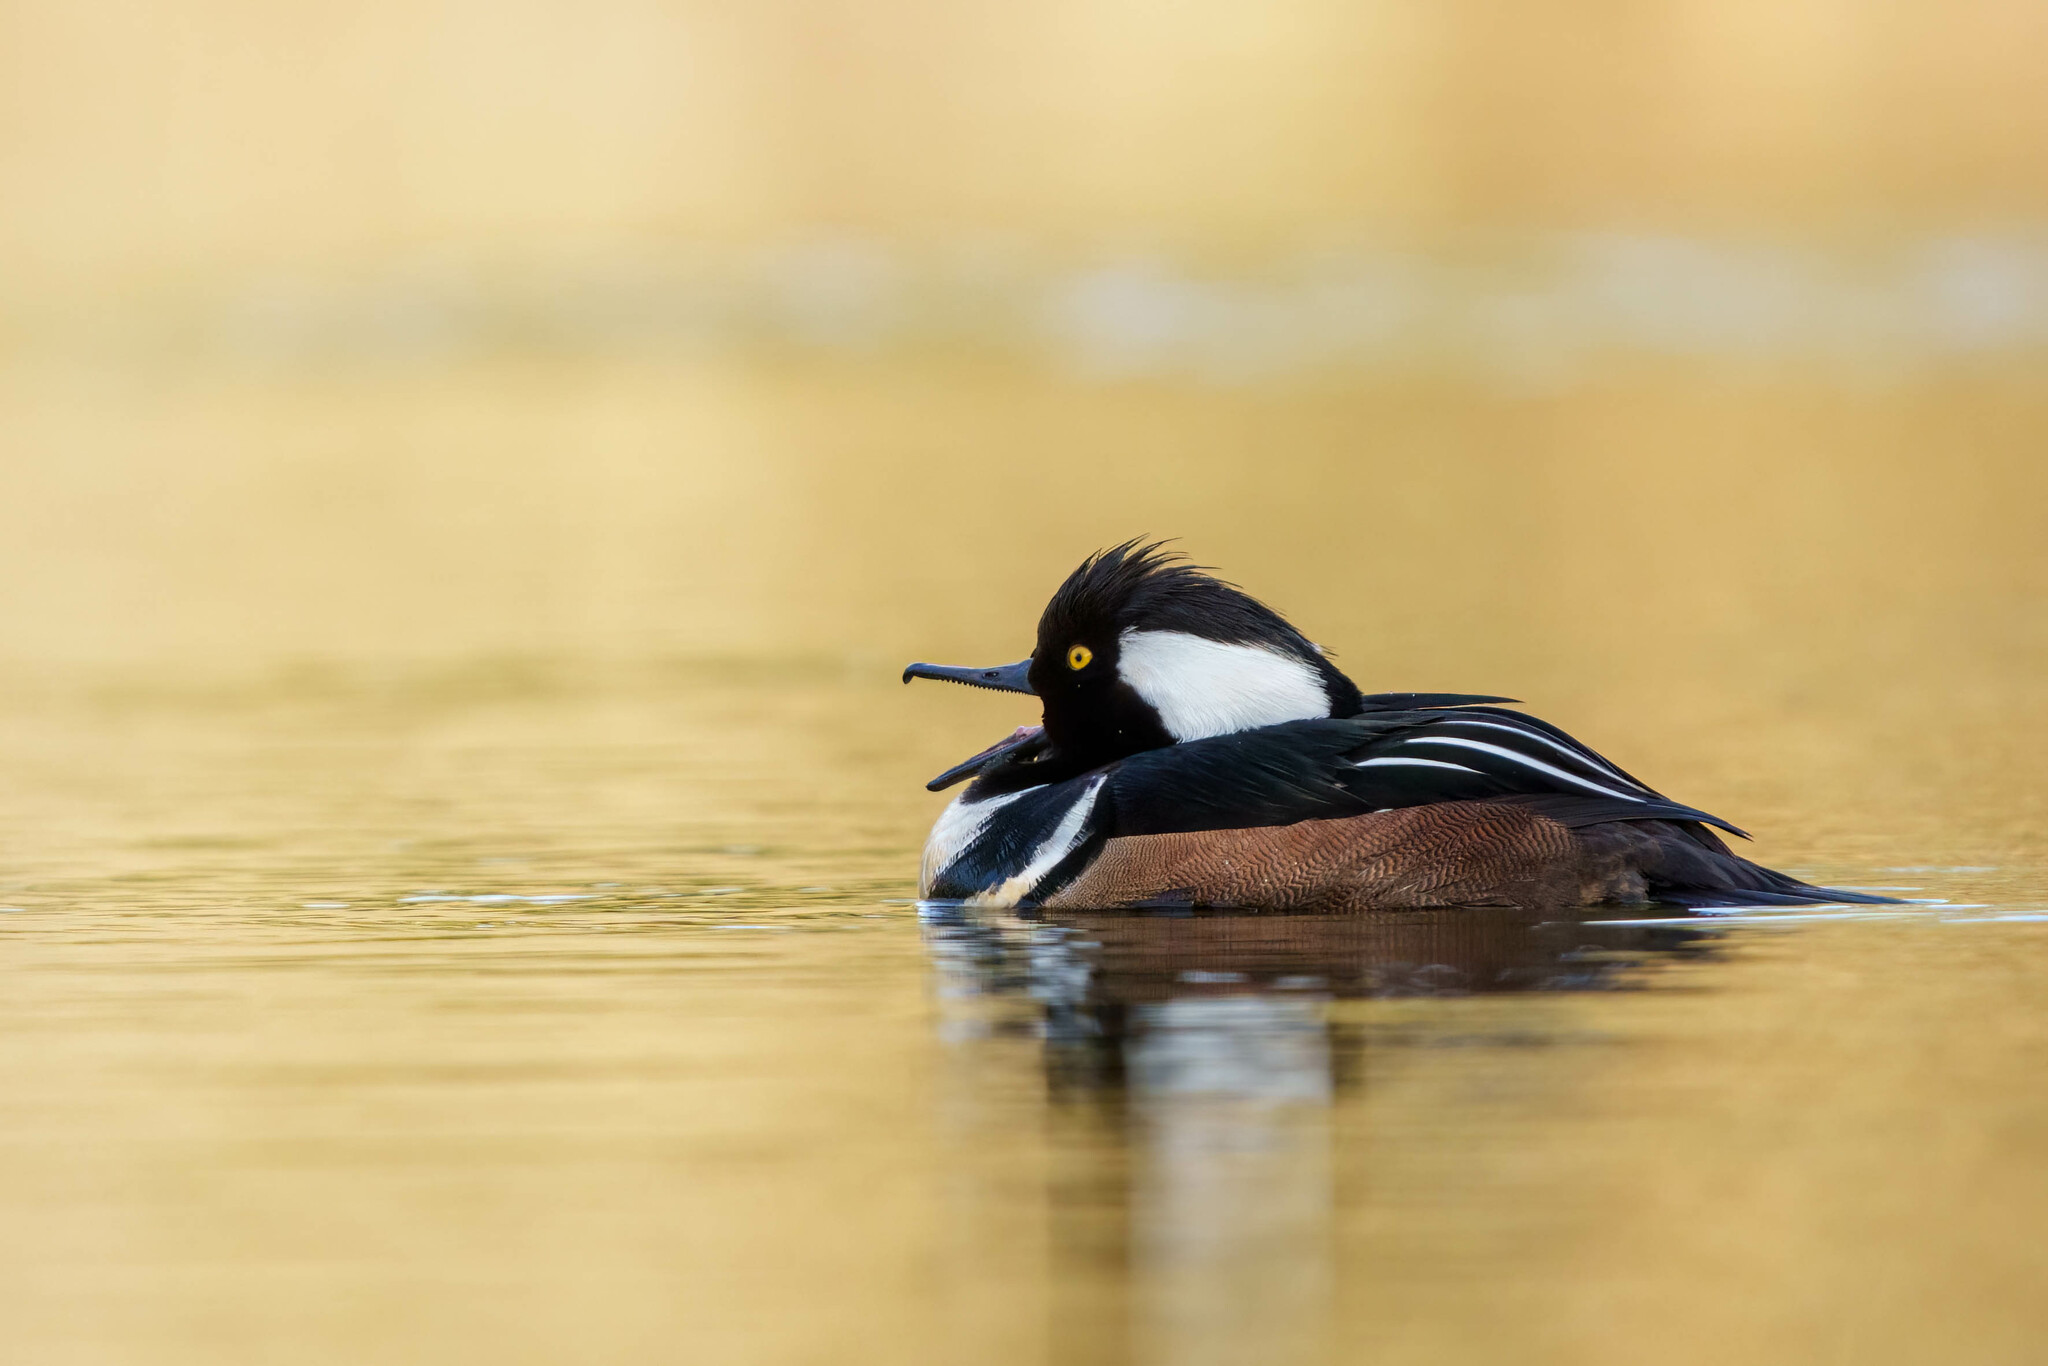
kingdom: Animalia
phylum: Chordata
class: Aves
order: Anseriformes
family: Anatidae
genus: Lophodytes
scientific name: Lophodytes cucullatus
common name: Hooded merganser
